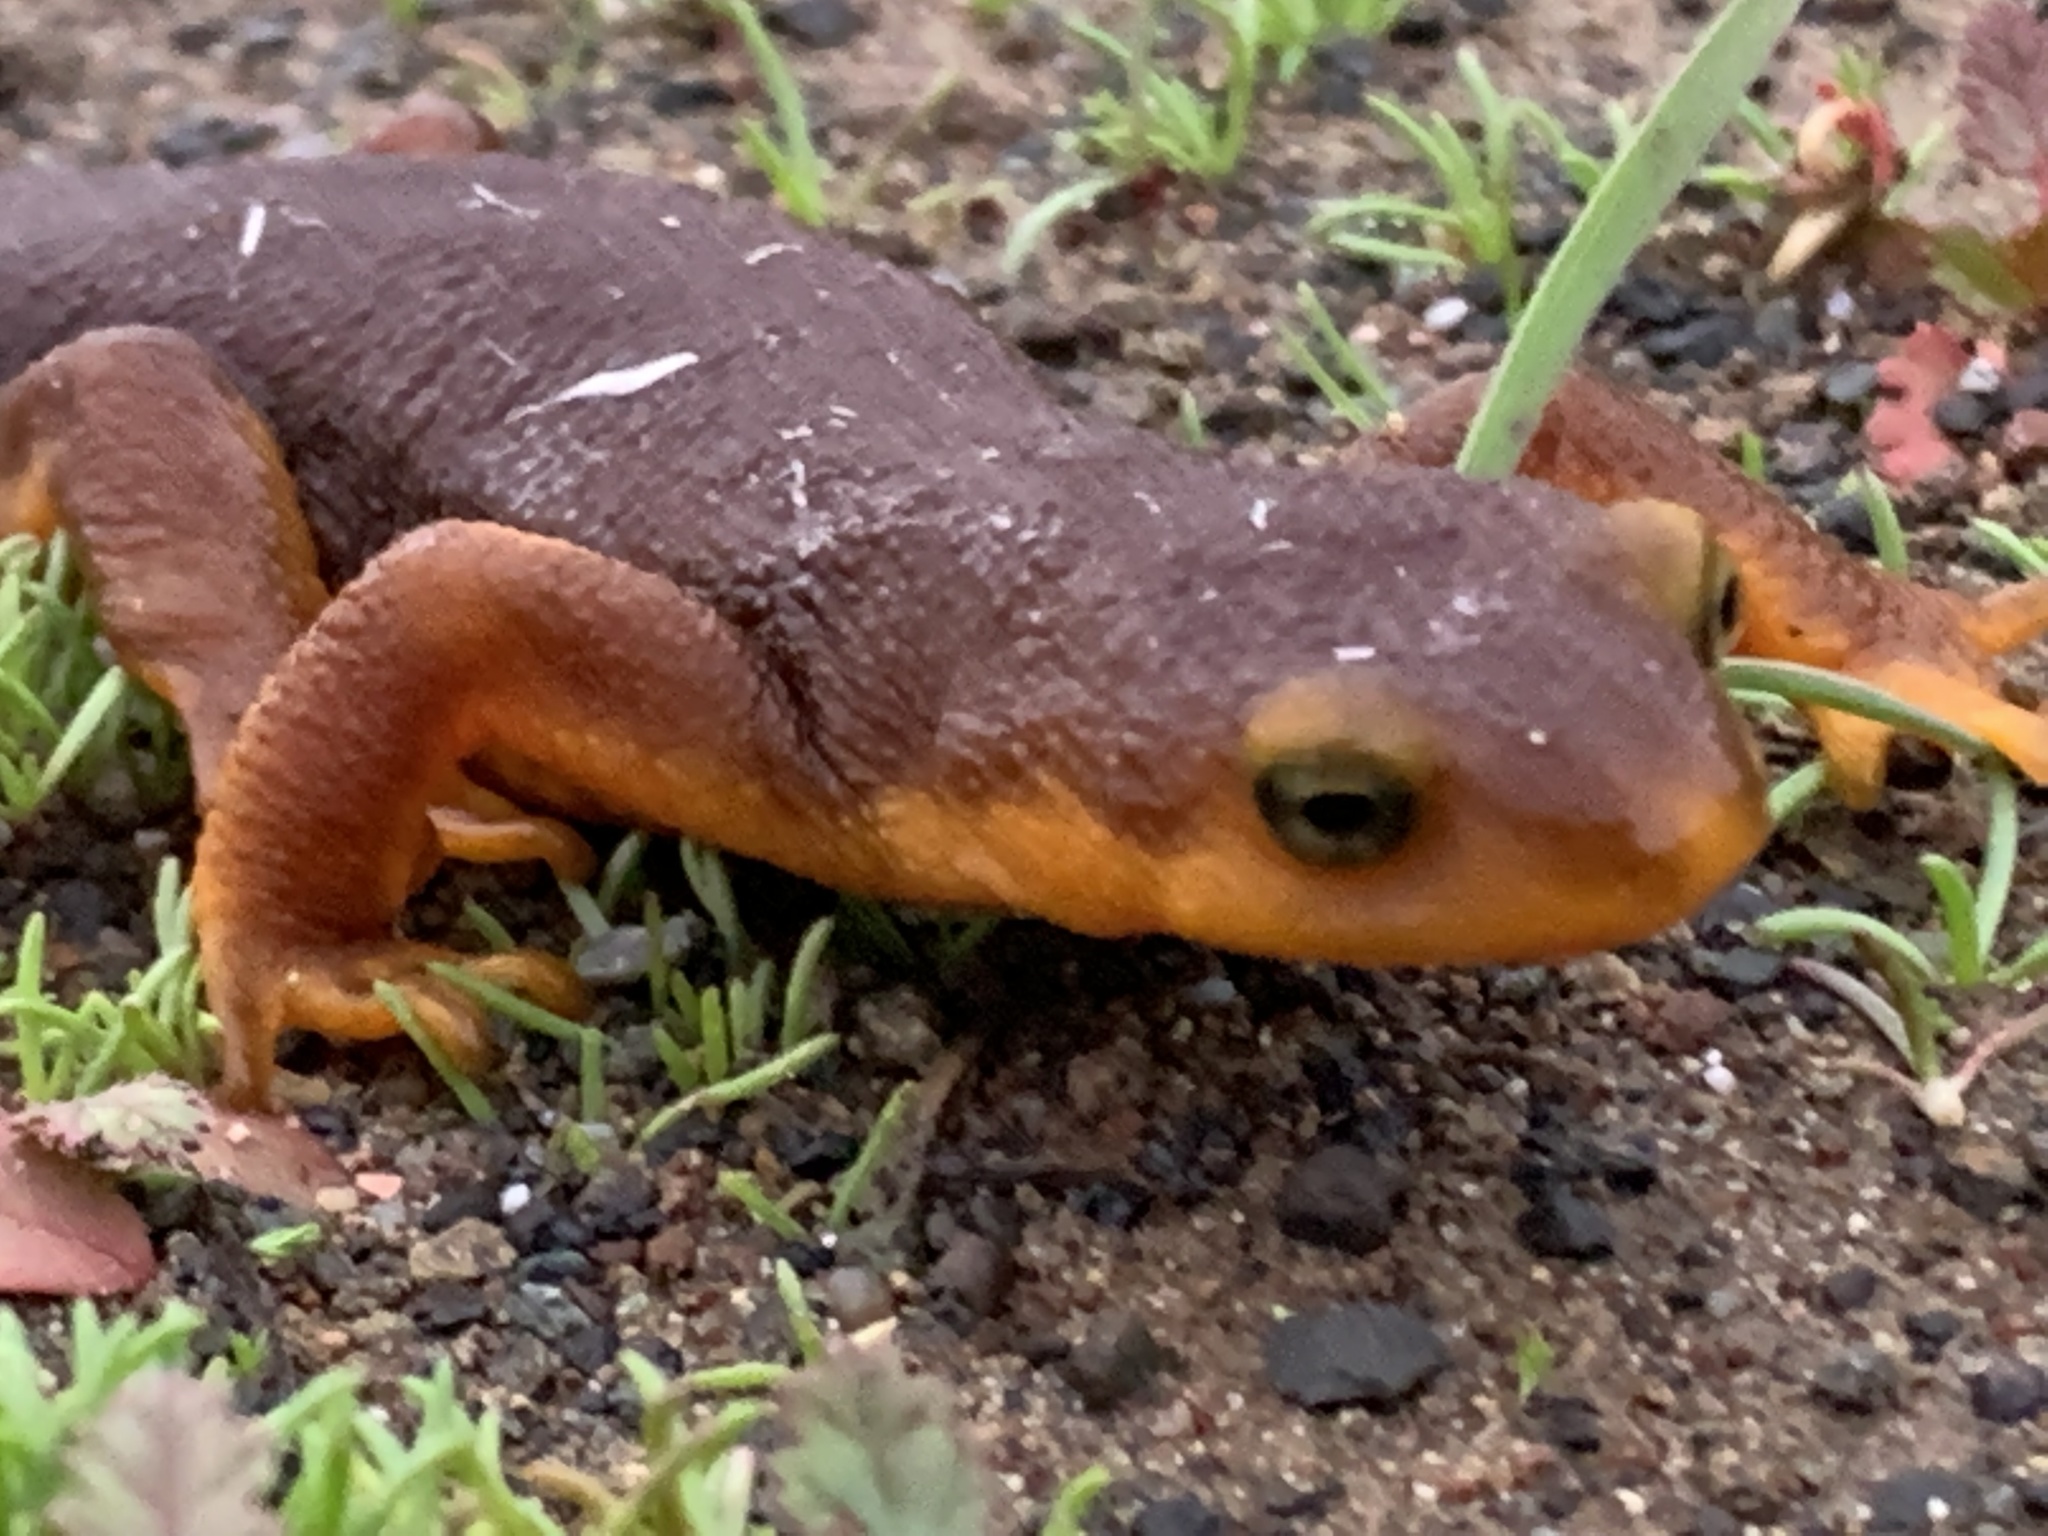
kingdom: Animalia
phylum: Chordata
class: Amphibia
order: Caudata
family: Salamandridae
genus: Taricha
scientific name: Taricha torosa
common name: California newt
